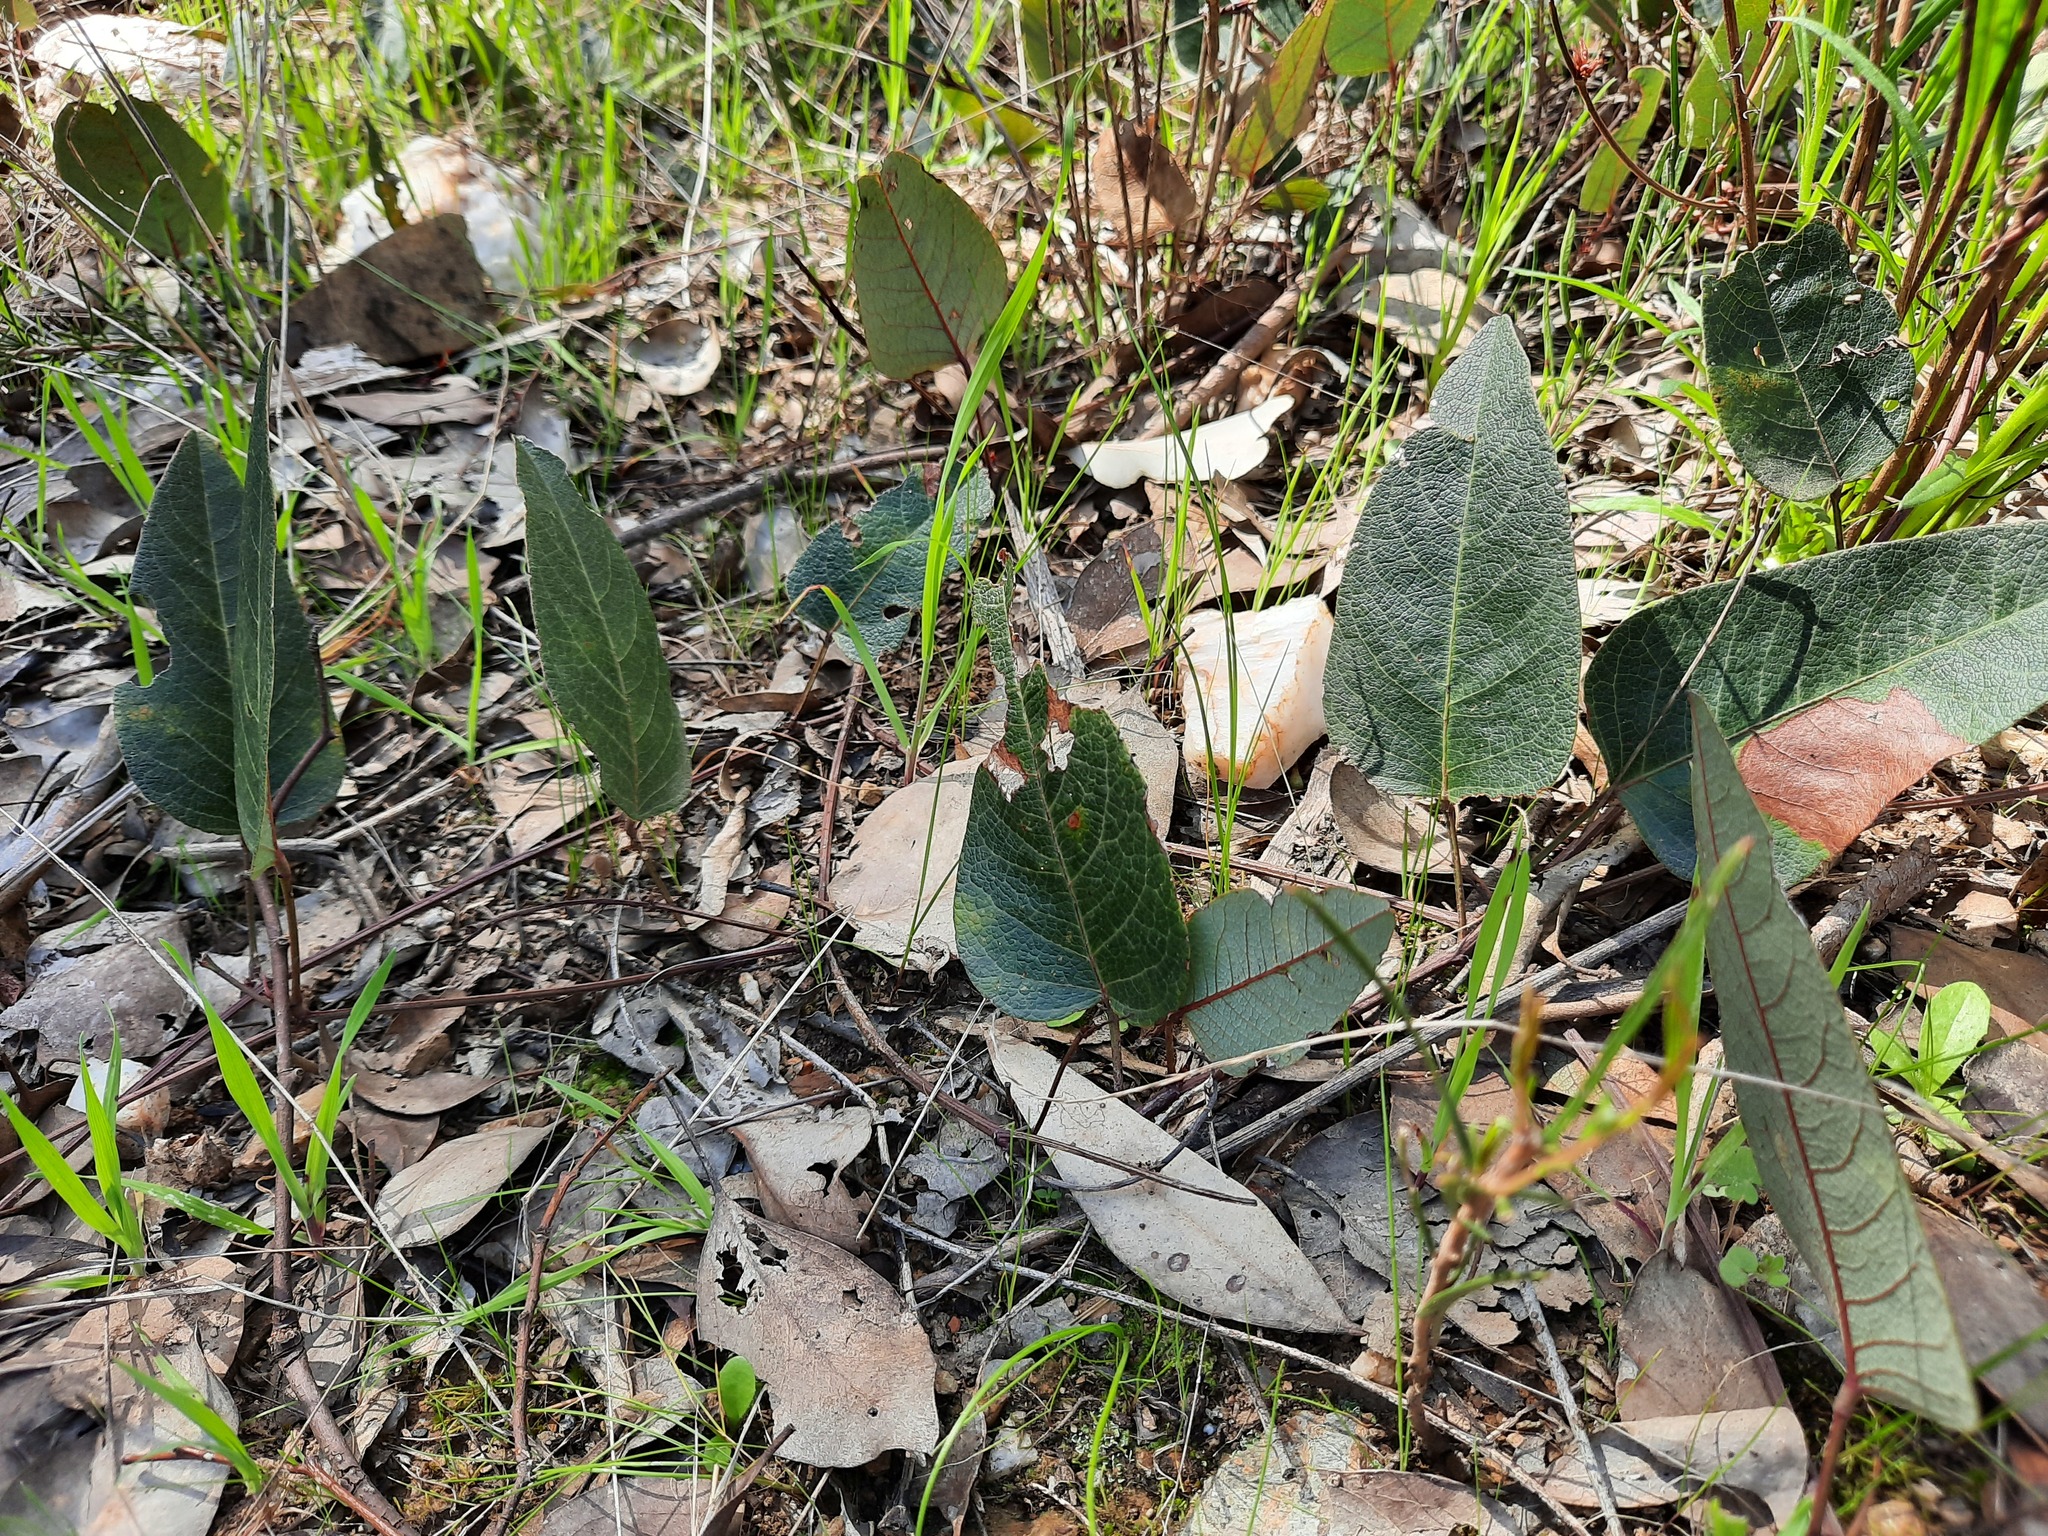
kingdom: Plantae
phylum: Tracheophyta
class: Magnoliopsida
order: Fabales
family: Fabaceae
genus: Hardenbergia
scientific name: Hardenbergia violacea
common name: Coral-pea
